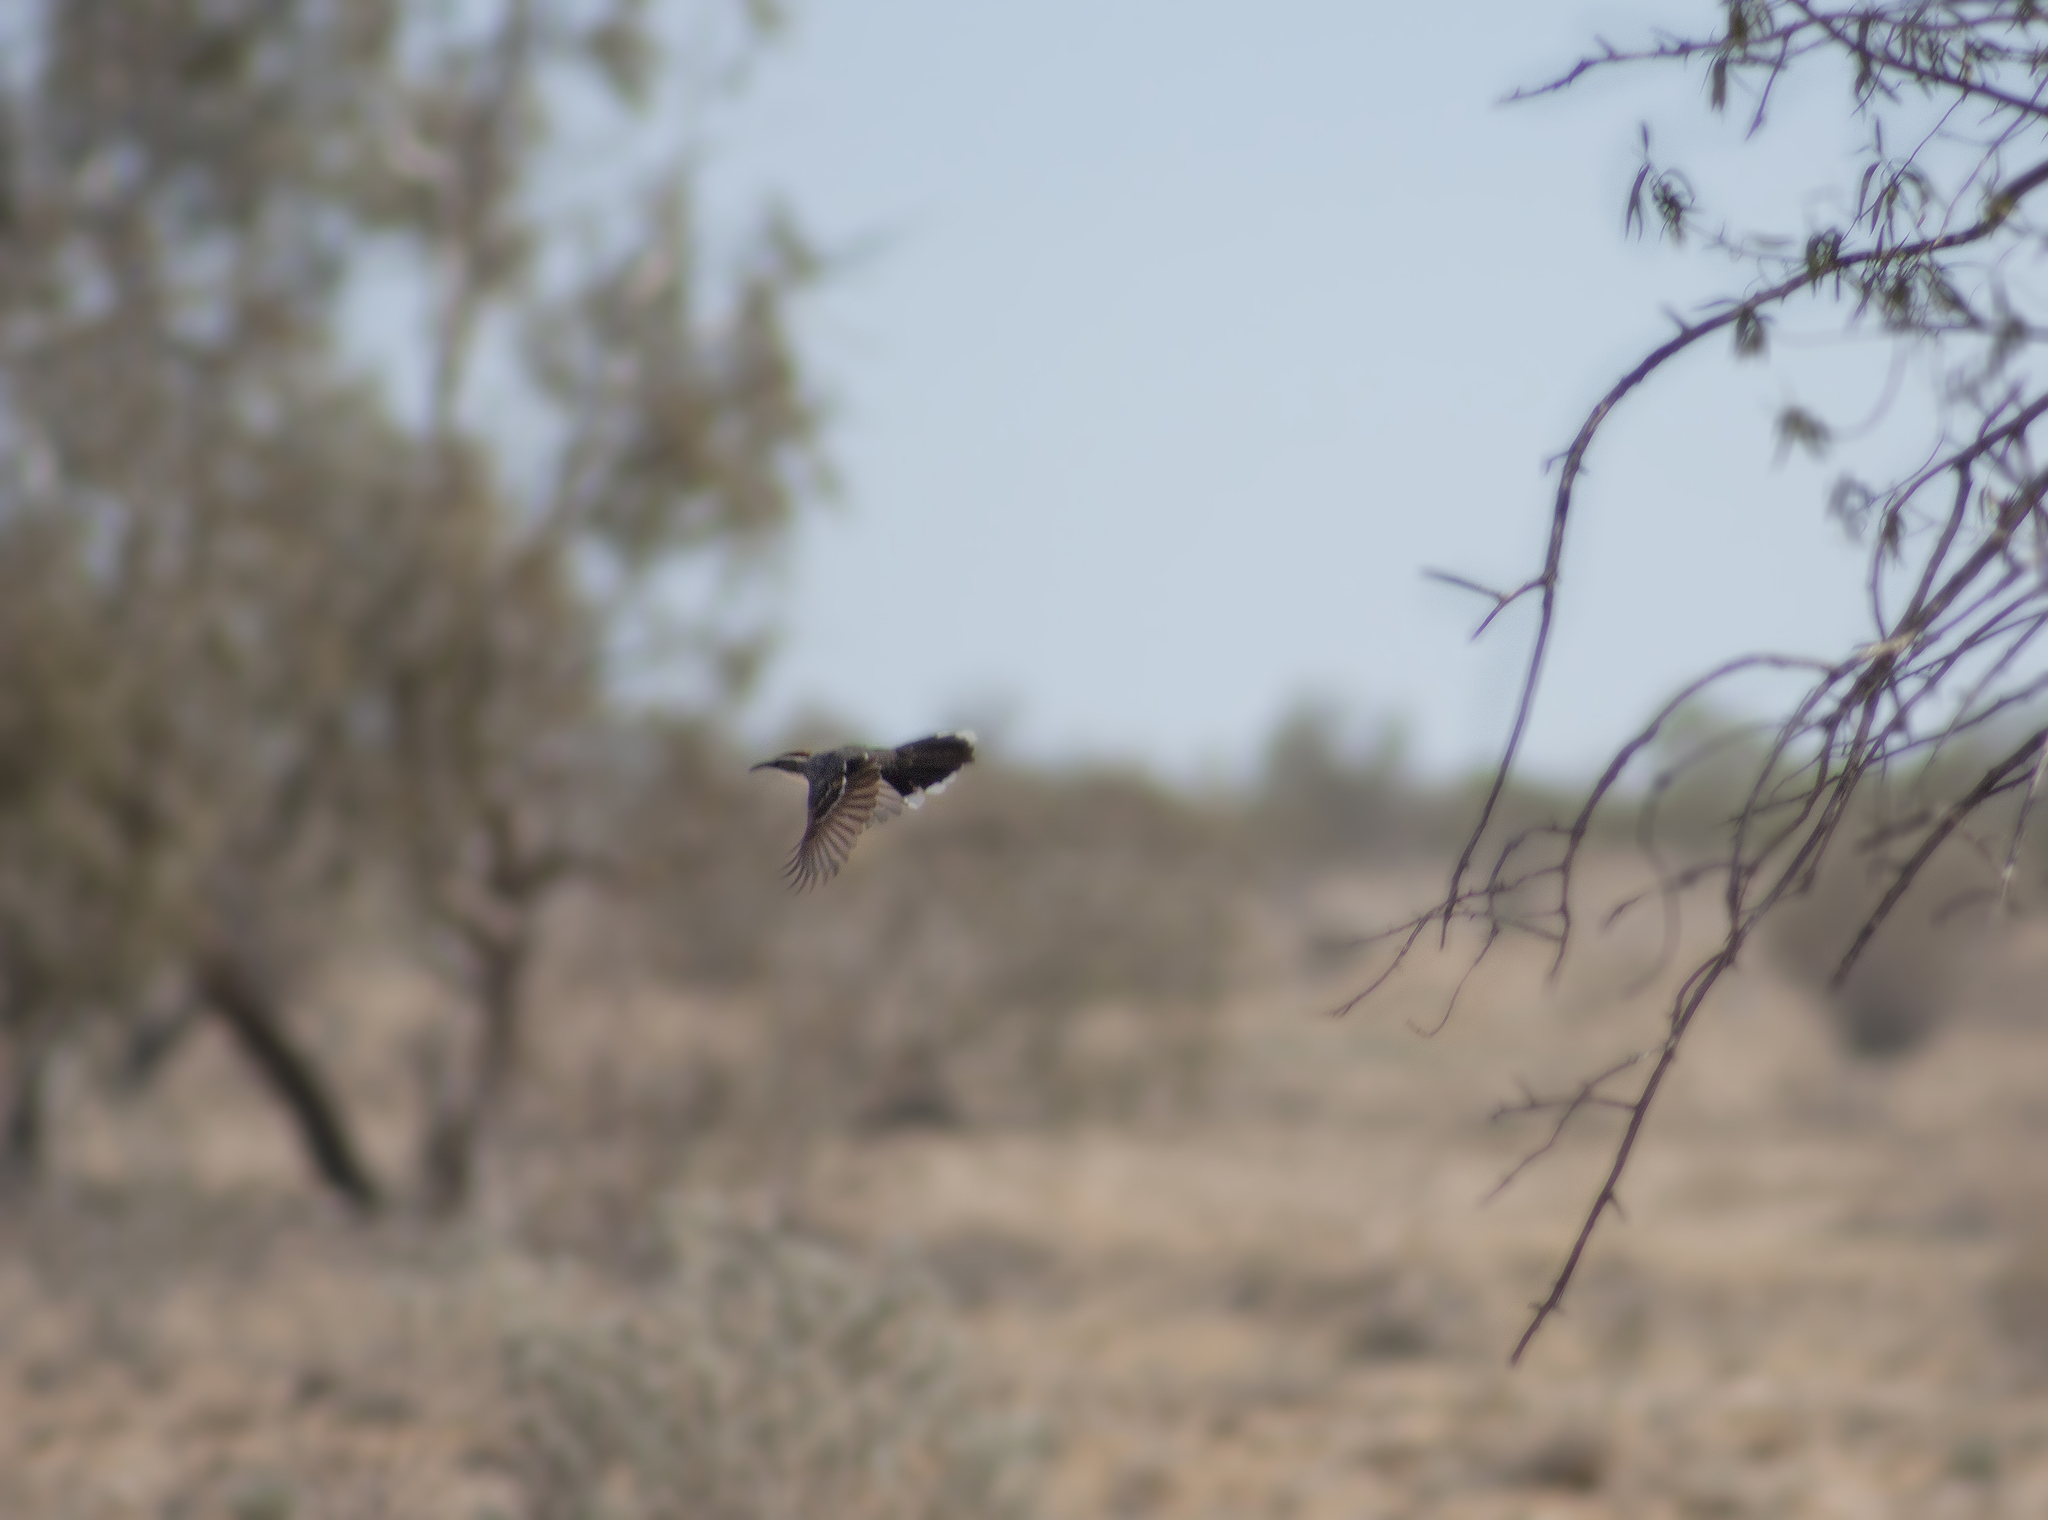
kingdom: Animalia
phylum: Chordata
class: Aves
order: Passeriformes
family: Pomatostomidae
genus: Pomatostomus
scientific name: Pomatostomus ruficeps
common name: Chestnut-crowned babbler
